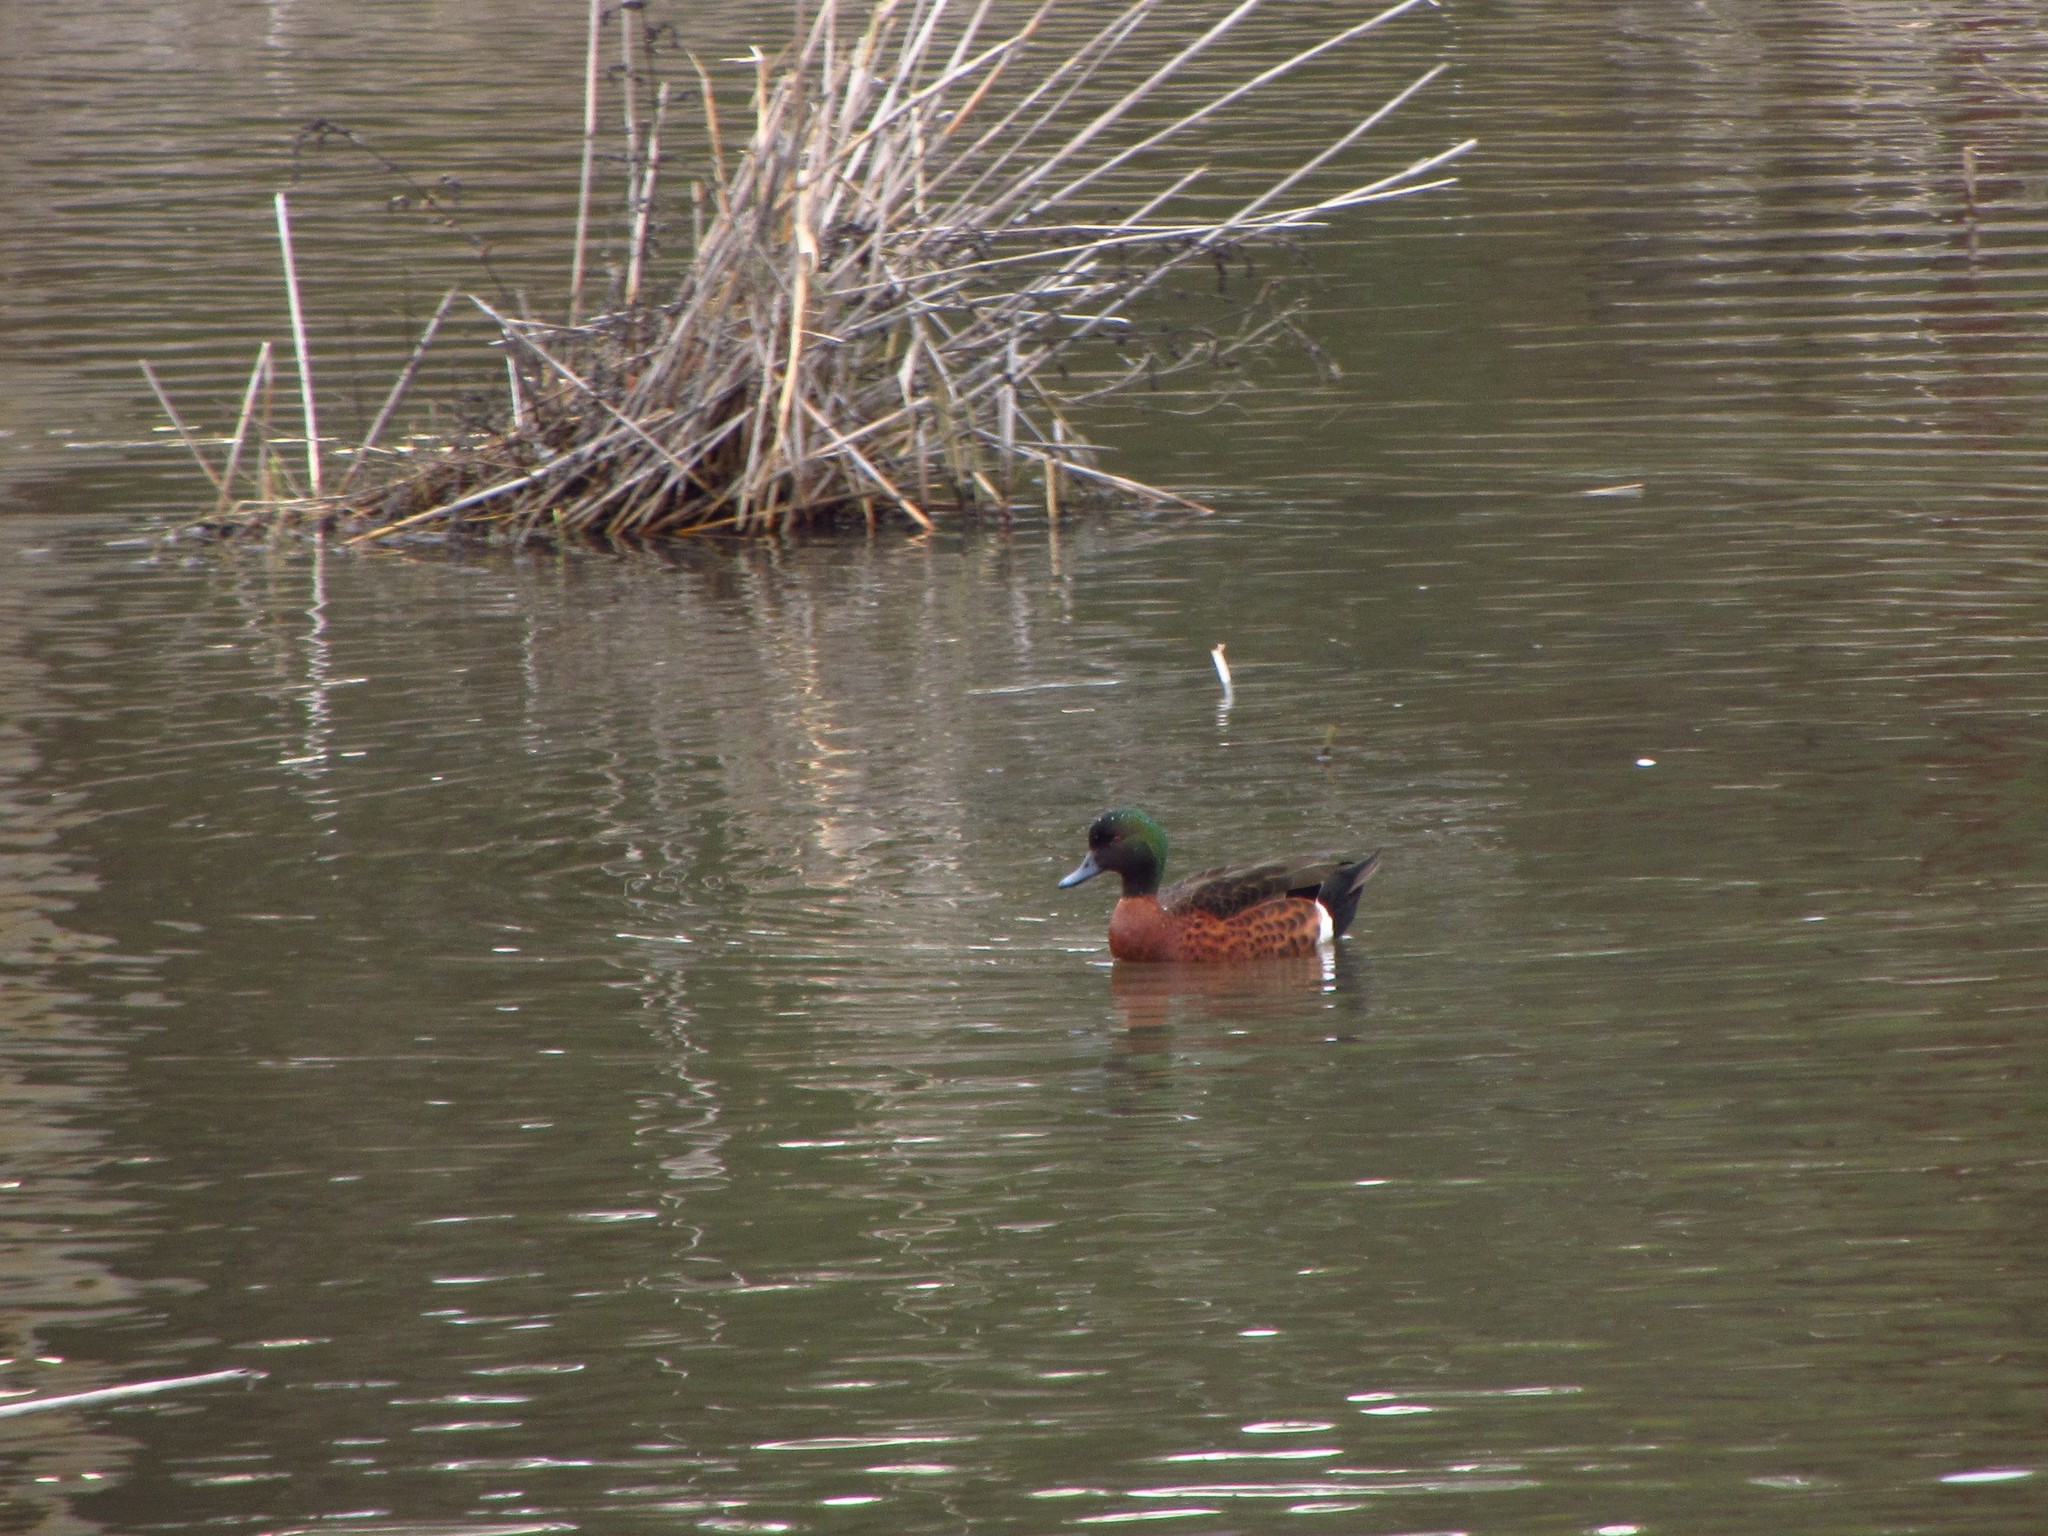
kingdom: Animalia
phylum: Chordata
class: Aves
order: Anseriformes
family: Anatidae
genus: Anas
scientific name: Anas castanea
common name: Chestnut teal
